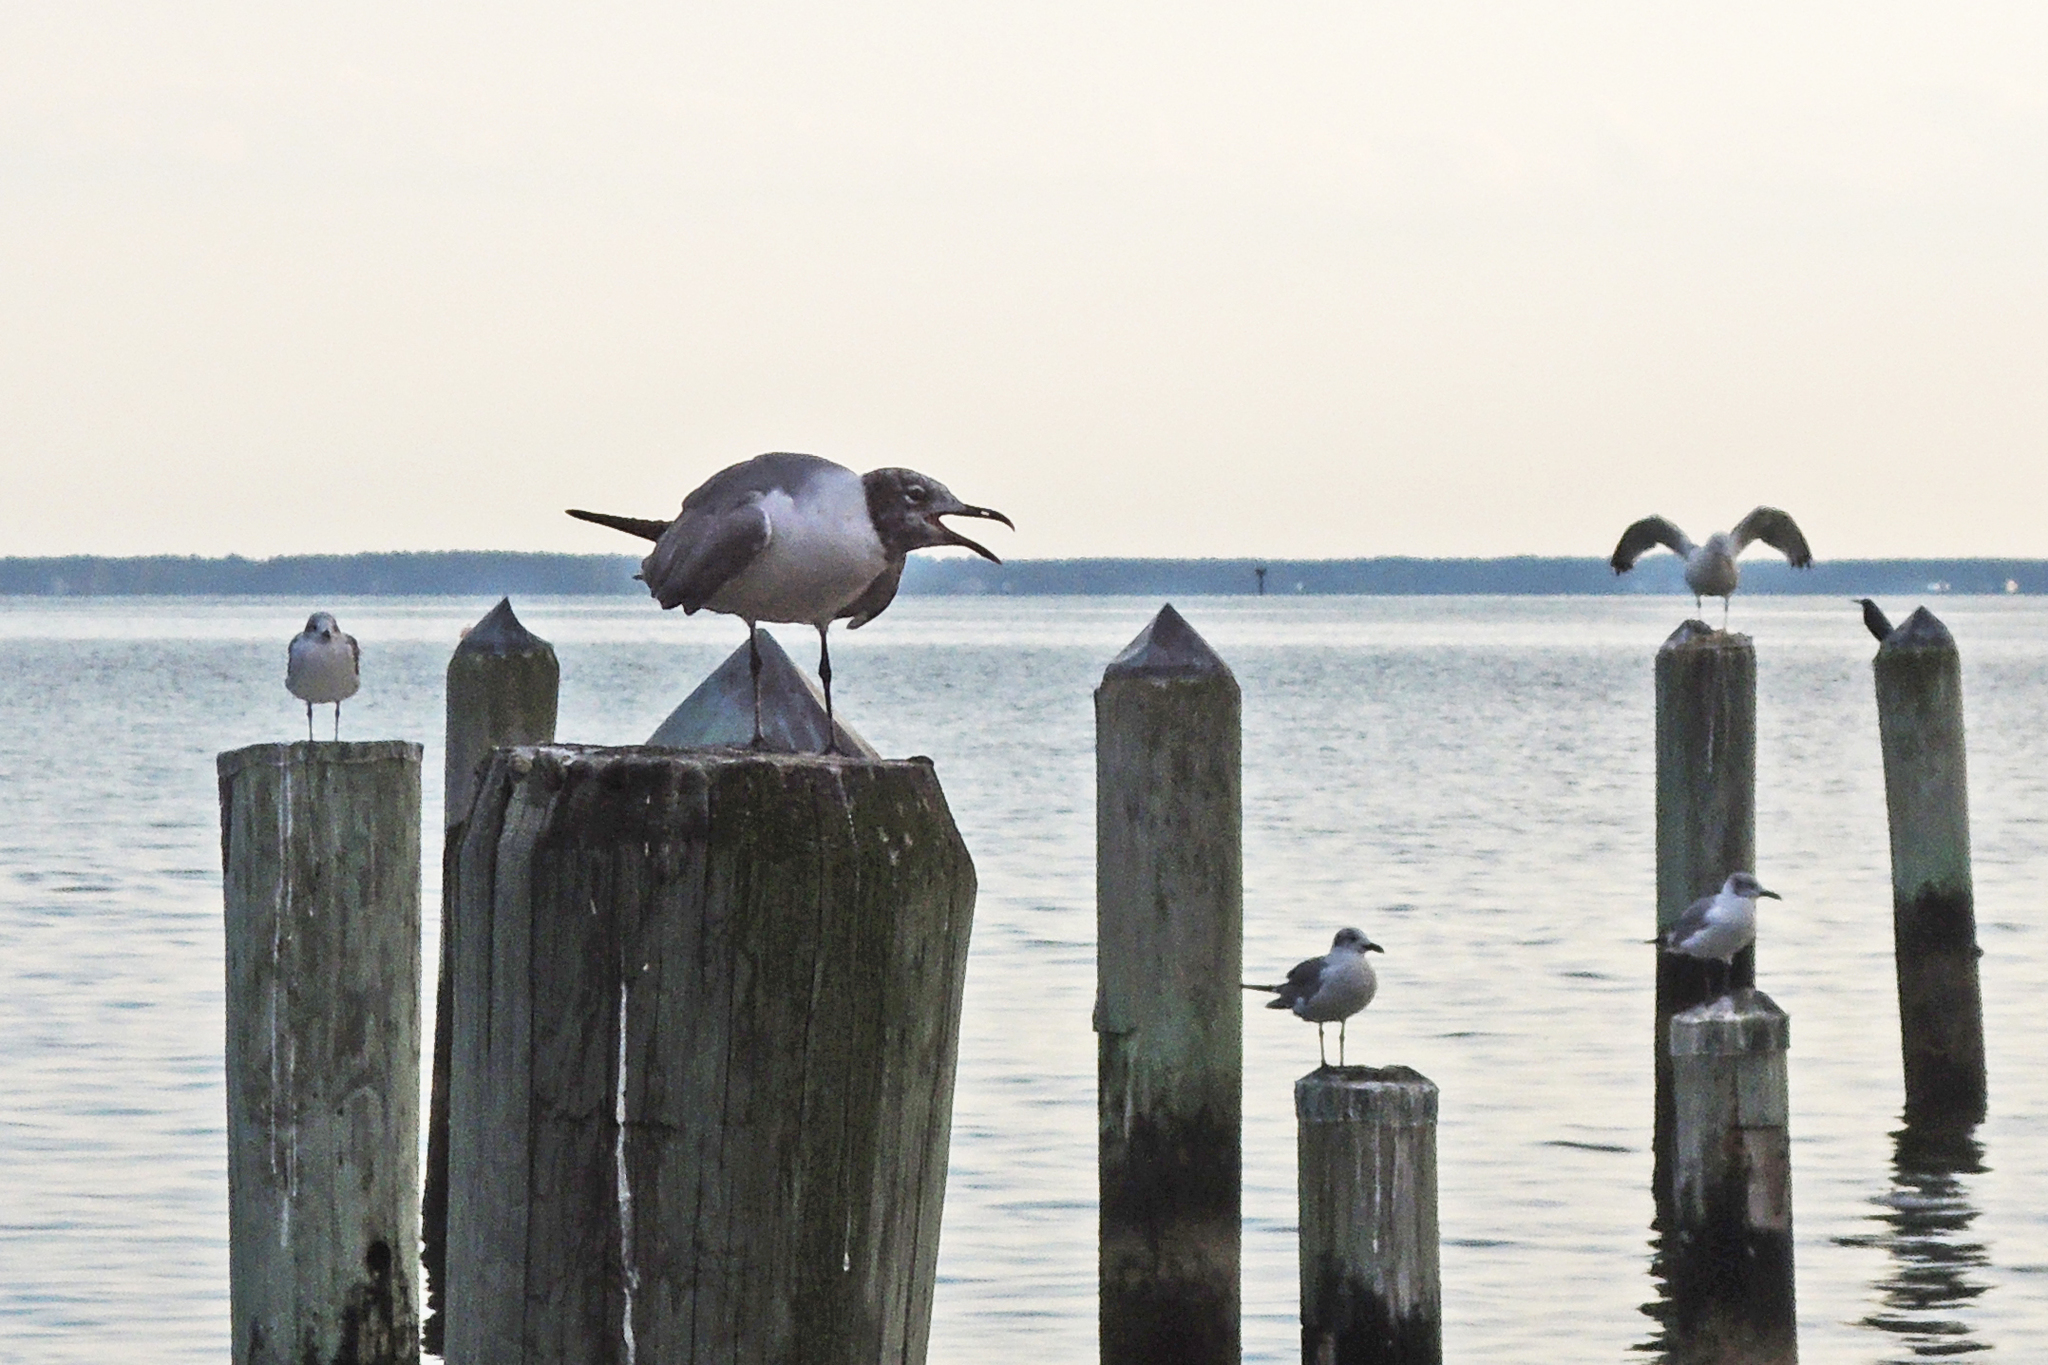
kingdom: Animalia
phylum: Chordata
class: Aves
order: Charadriiformes
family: Laridae
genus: Leucophaeus
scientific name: Leucophaeus atricilla
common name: Laughing gull
